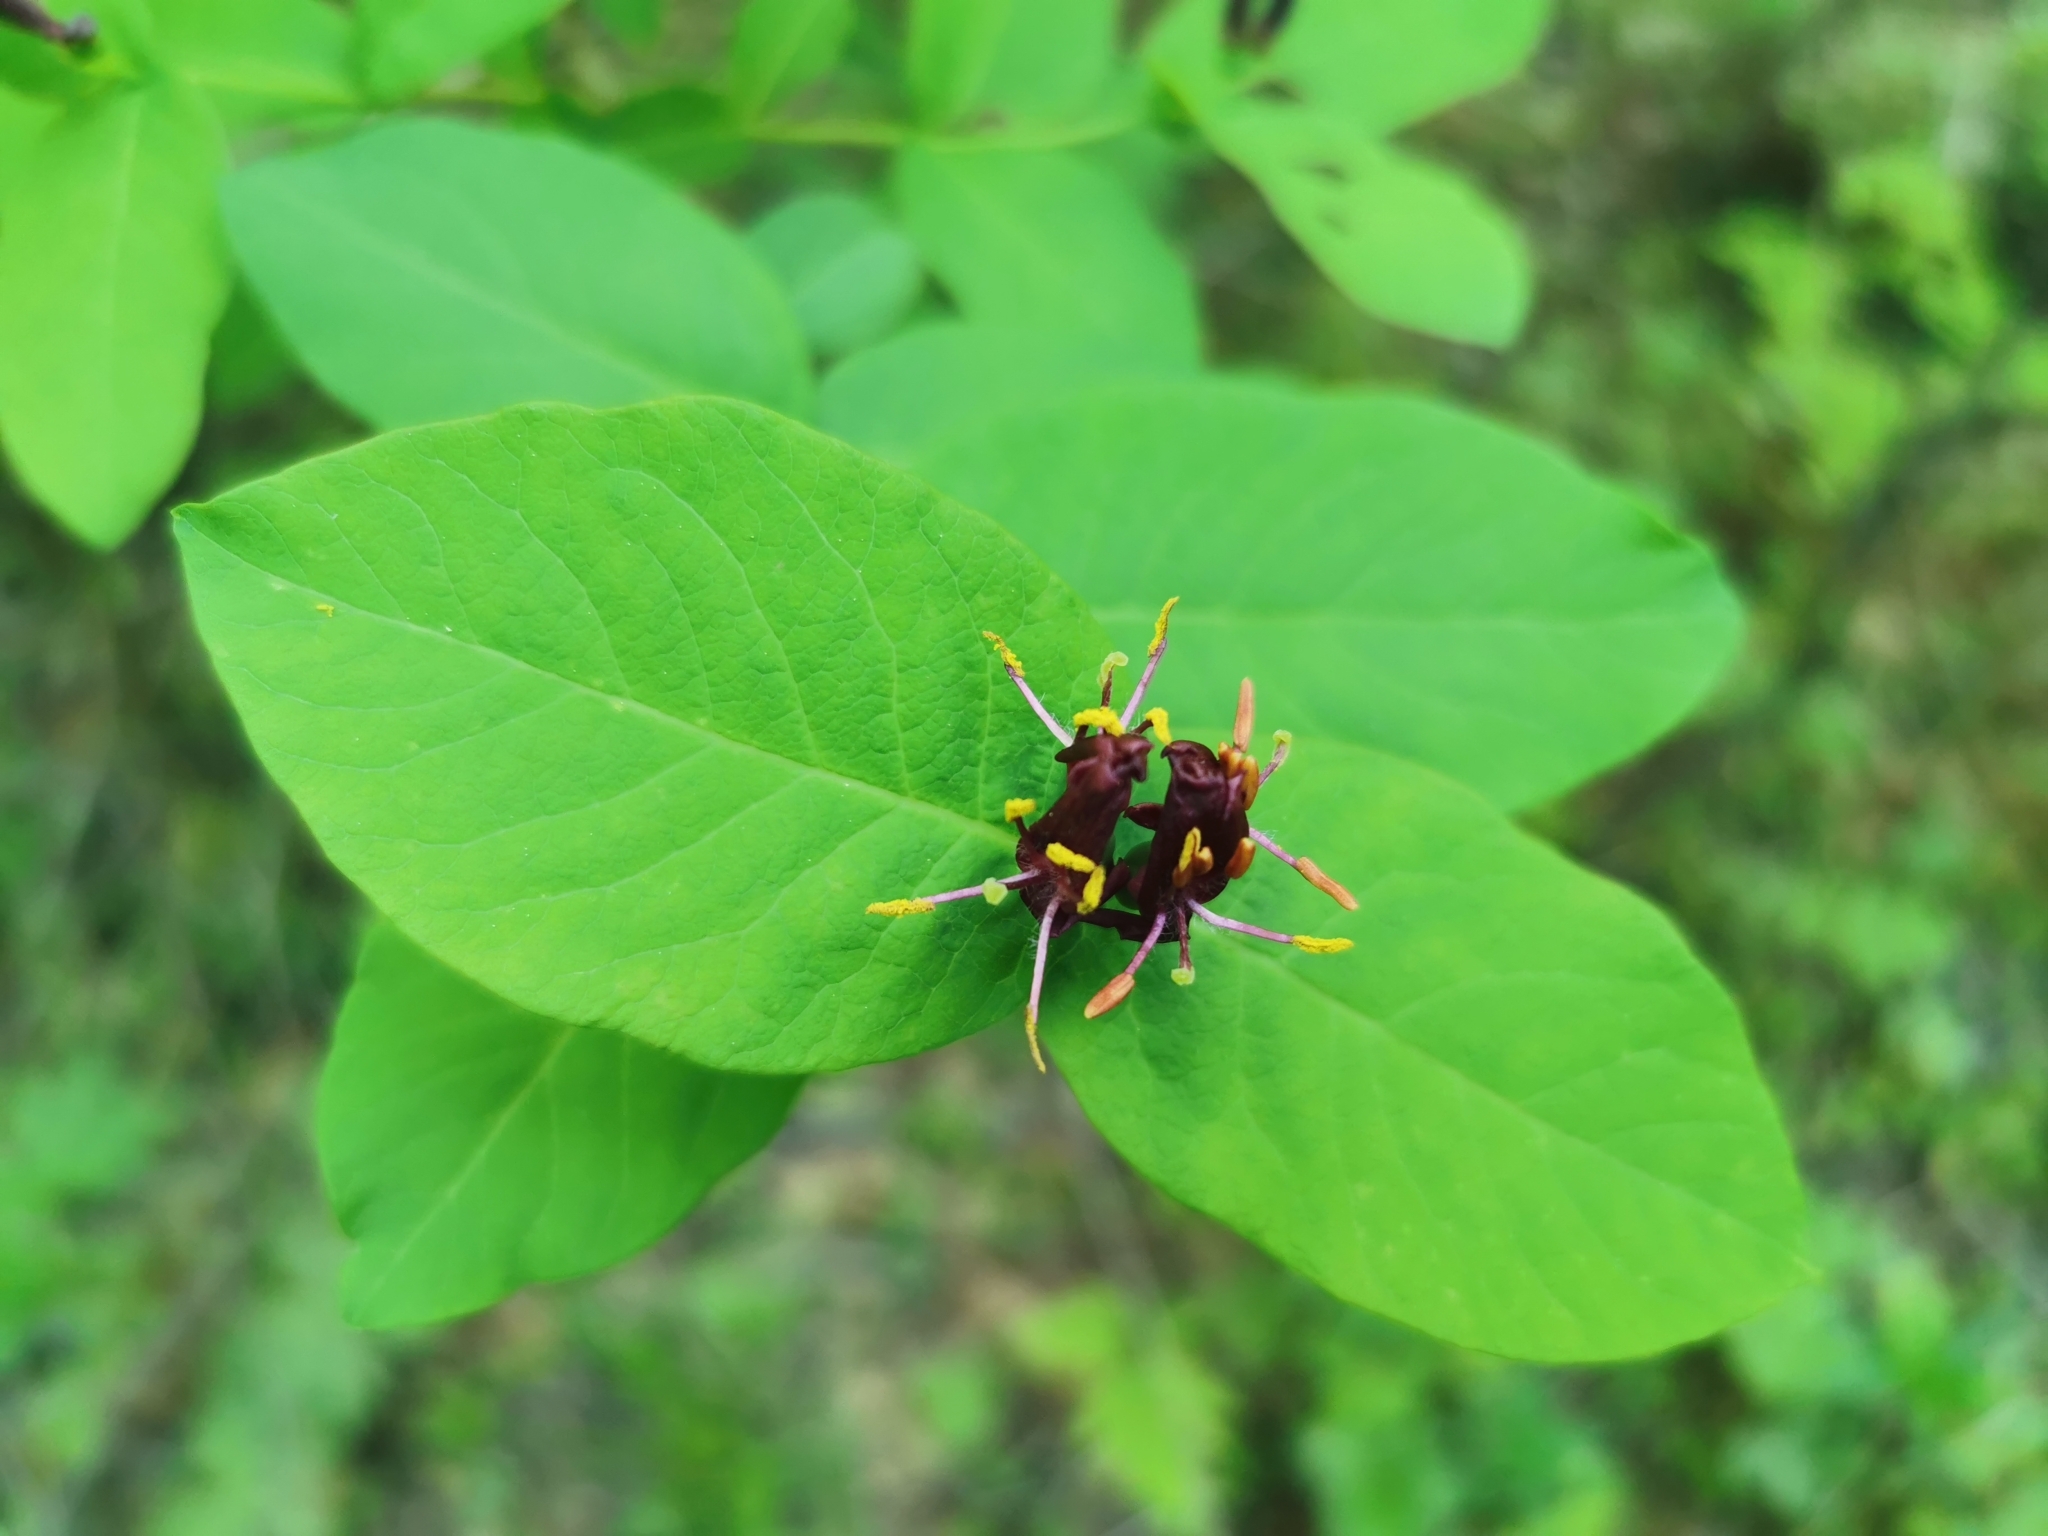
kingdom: Plantae
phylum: Tracheophyta
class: Magnoliopsida
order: Dipsacales
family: Caprifoliaceae
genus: Lonicera
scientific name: Lonicera chamissoi
